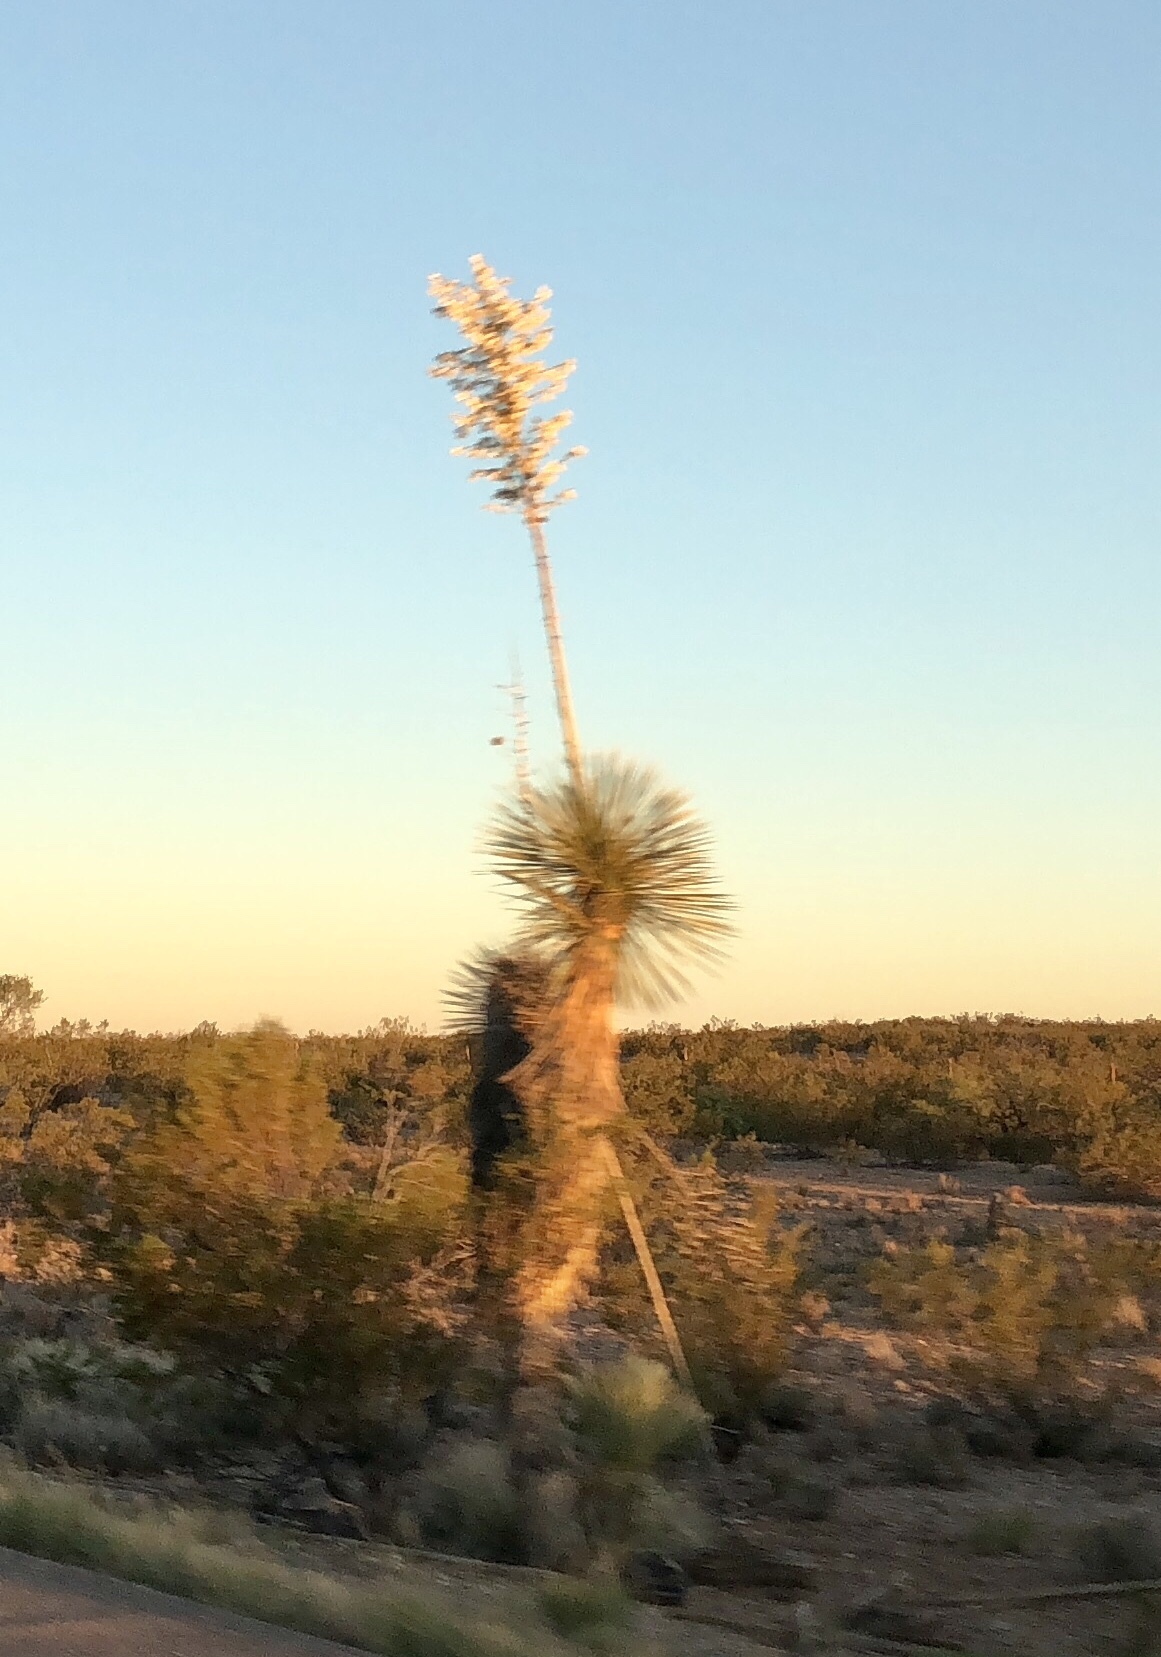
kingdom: Plantae
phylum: Tracheophyta
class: Liliopsida
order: Asparagales
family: Asparagaceae
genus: Yucca
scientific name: Yucca elata
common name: Palmella
